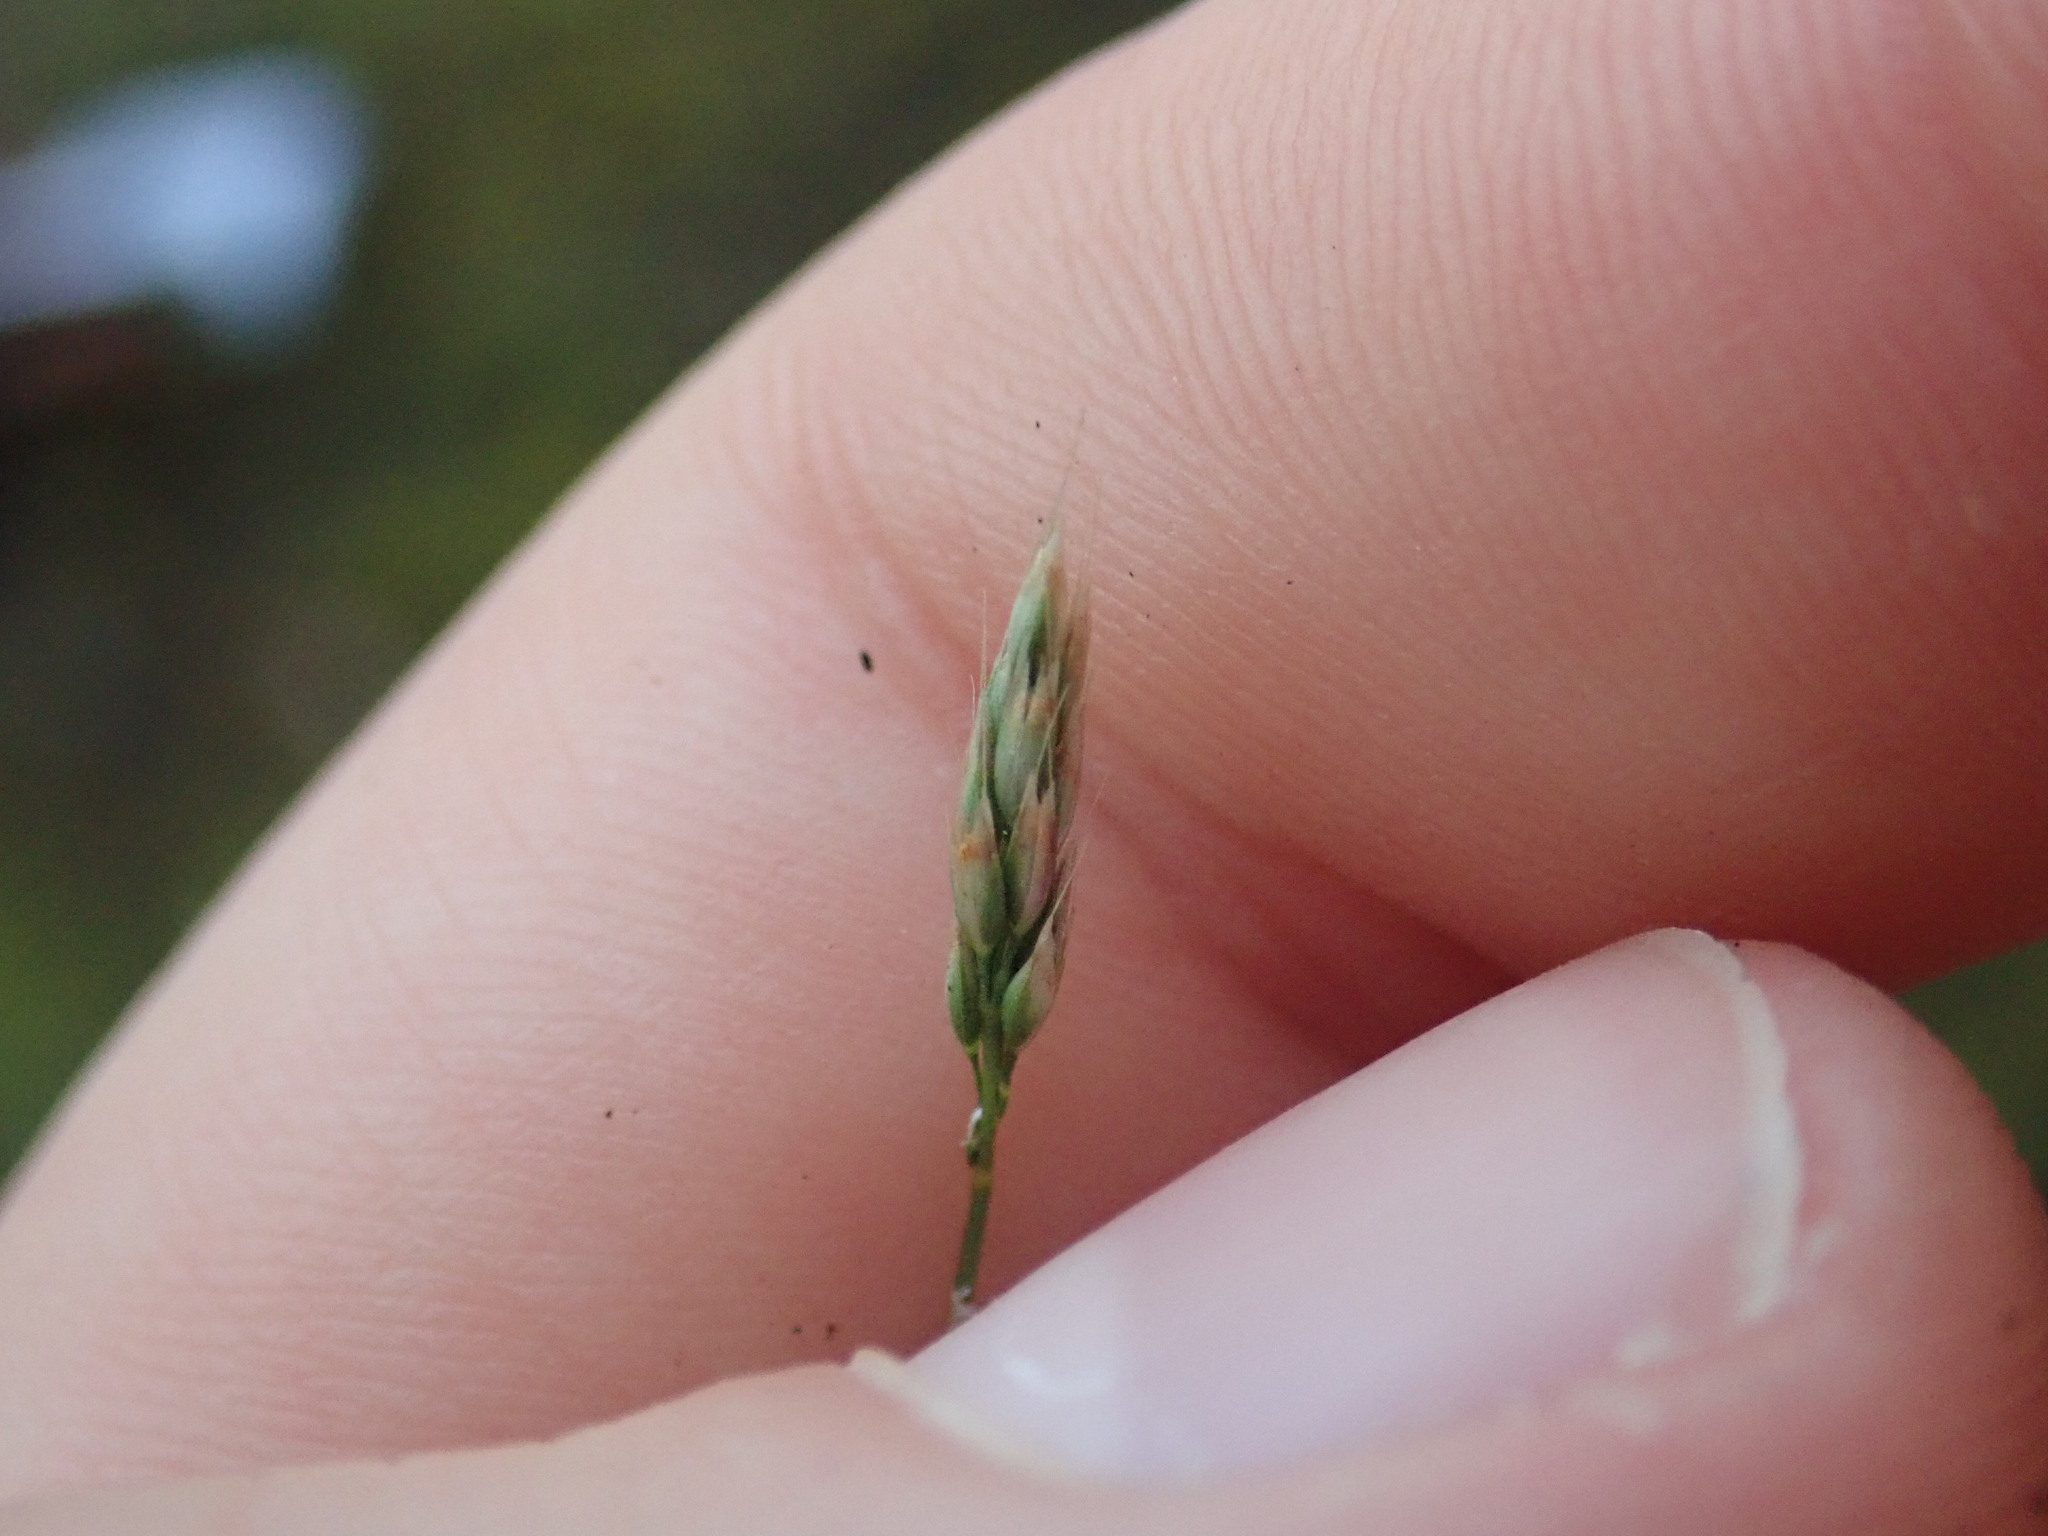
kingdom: Plantae
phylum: Tracheophyta
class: Liliopsida
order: Poales
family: Poaceae
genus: Aira
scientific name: Aira praecox
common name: Early hair-grass
